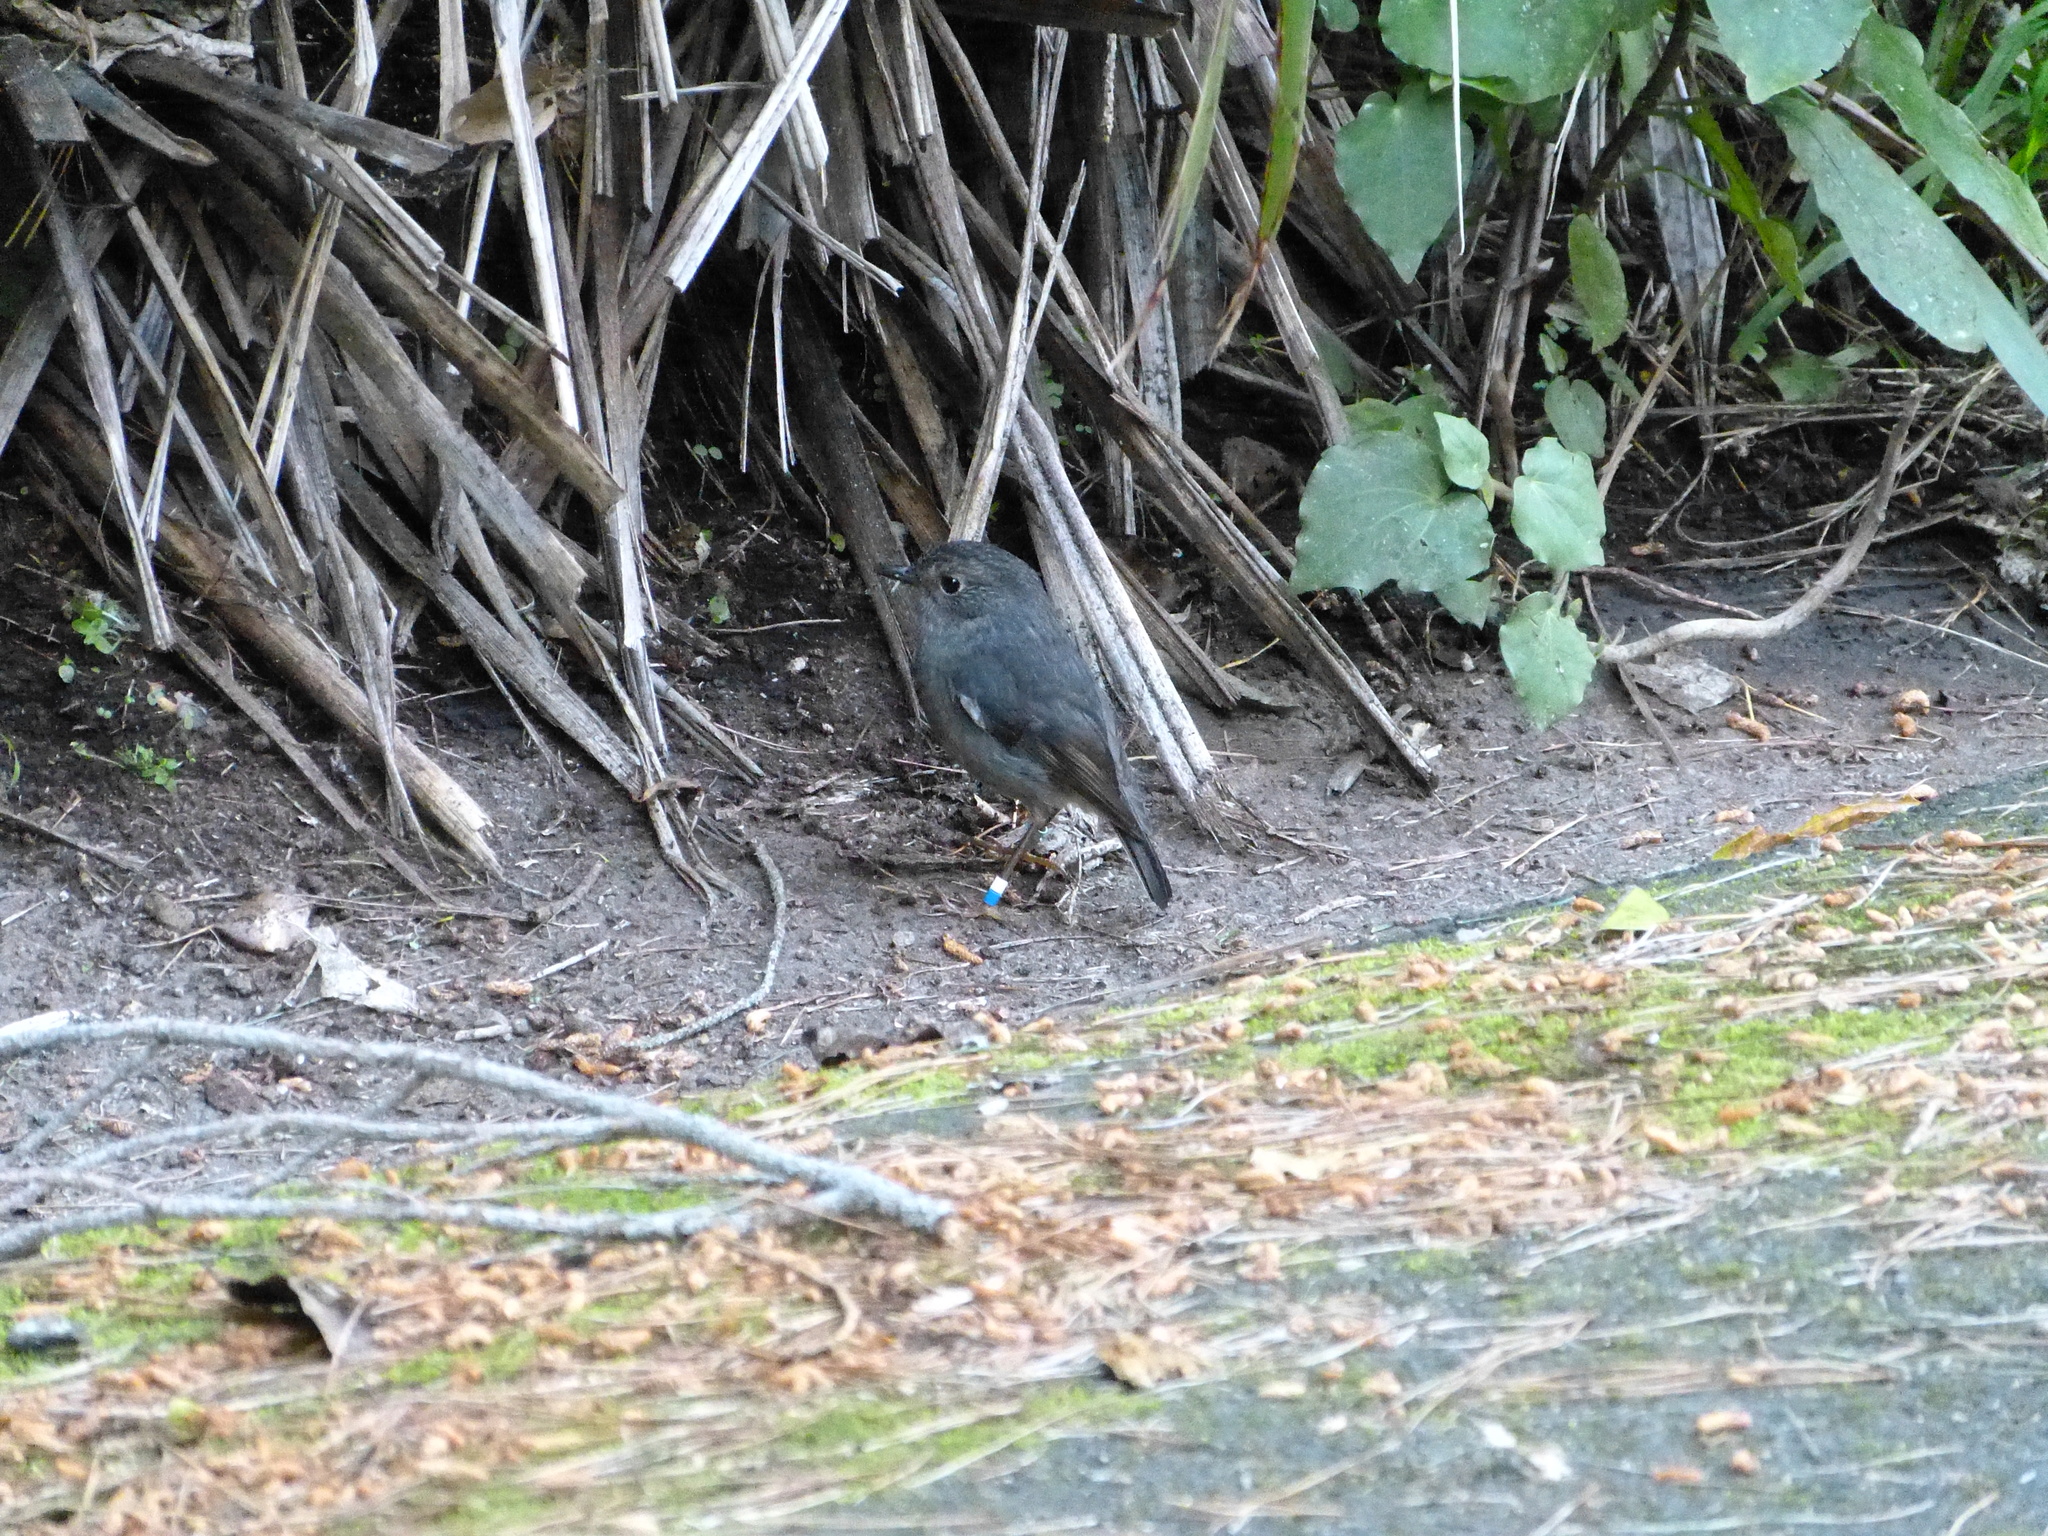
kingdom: Animalia
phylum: Chordata
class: Aves
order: Passeriformes
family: Petroicidae
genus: Petroica
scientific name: Petroica australis
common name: New zealand robin
